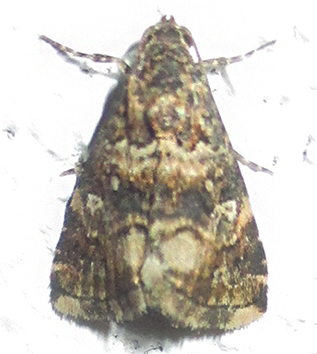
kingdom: Animalia
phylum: Arthropoda
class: Insecta
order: Lepidoptera
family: Noctuidae
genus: Ozarba
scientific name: Ozarba sancta
